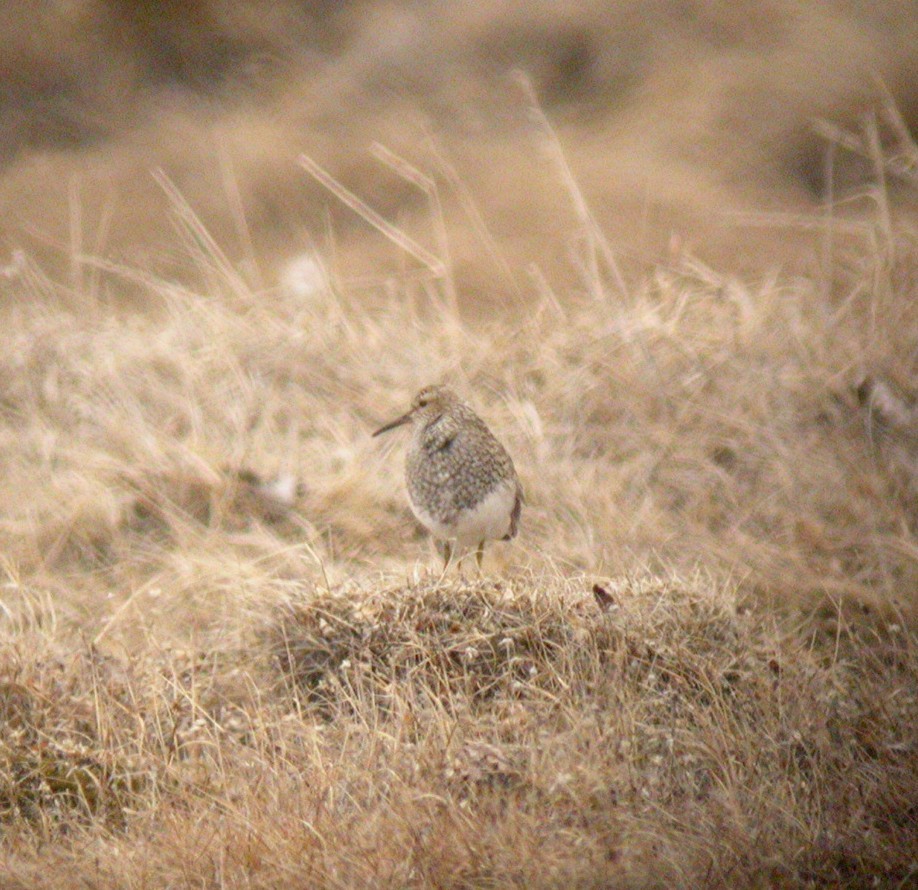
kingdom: Animalia
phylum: Chordata
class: Aves
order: Charadriiformes
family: Scolopacidae
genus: Calidris
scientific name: Calidris melanotos
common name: Pectoral sandpiper
